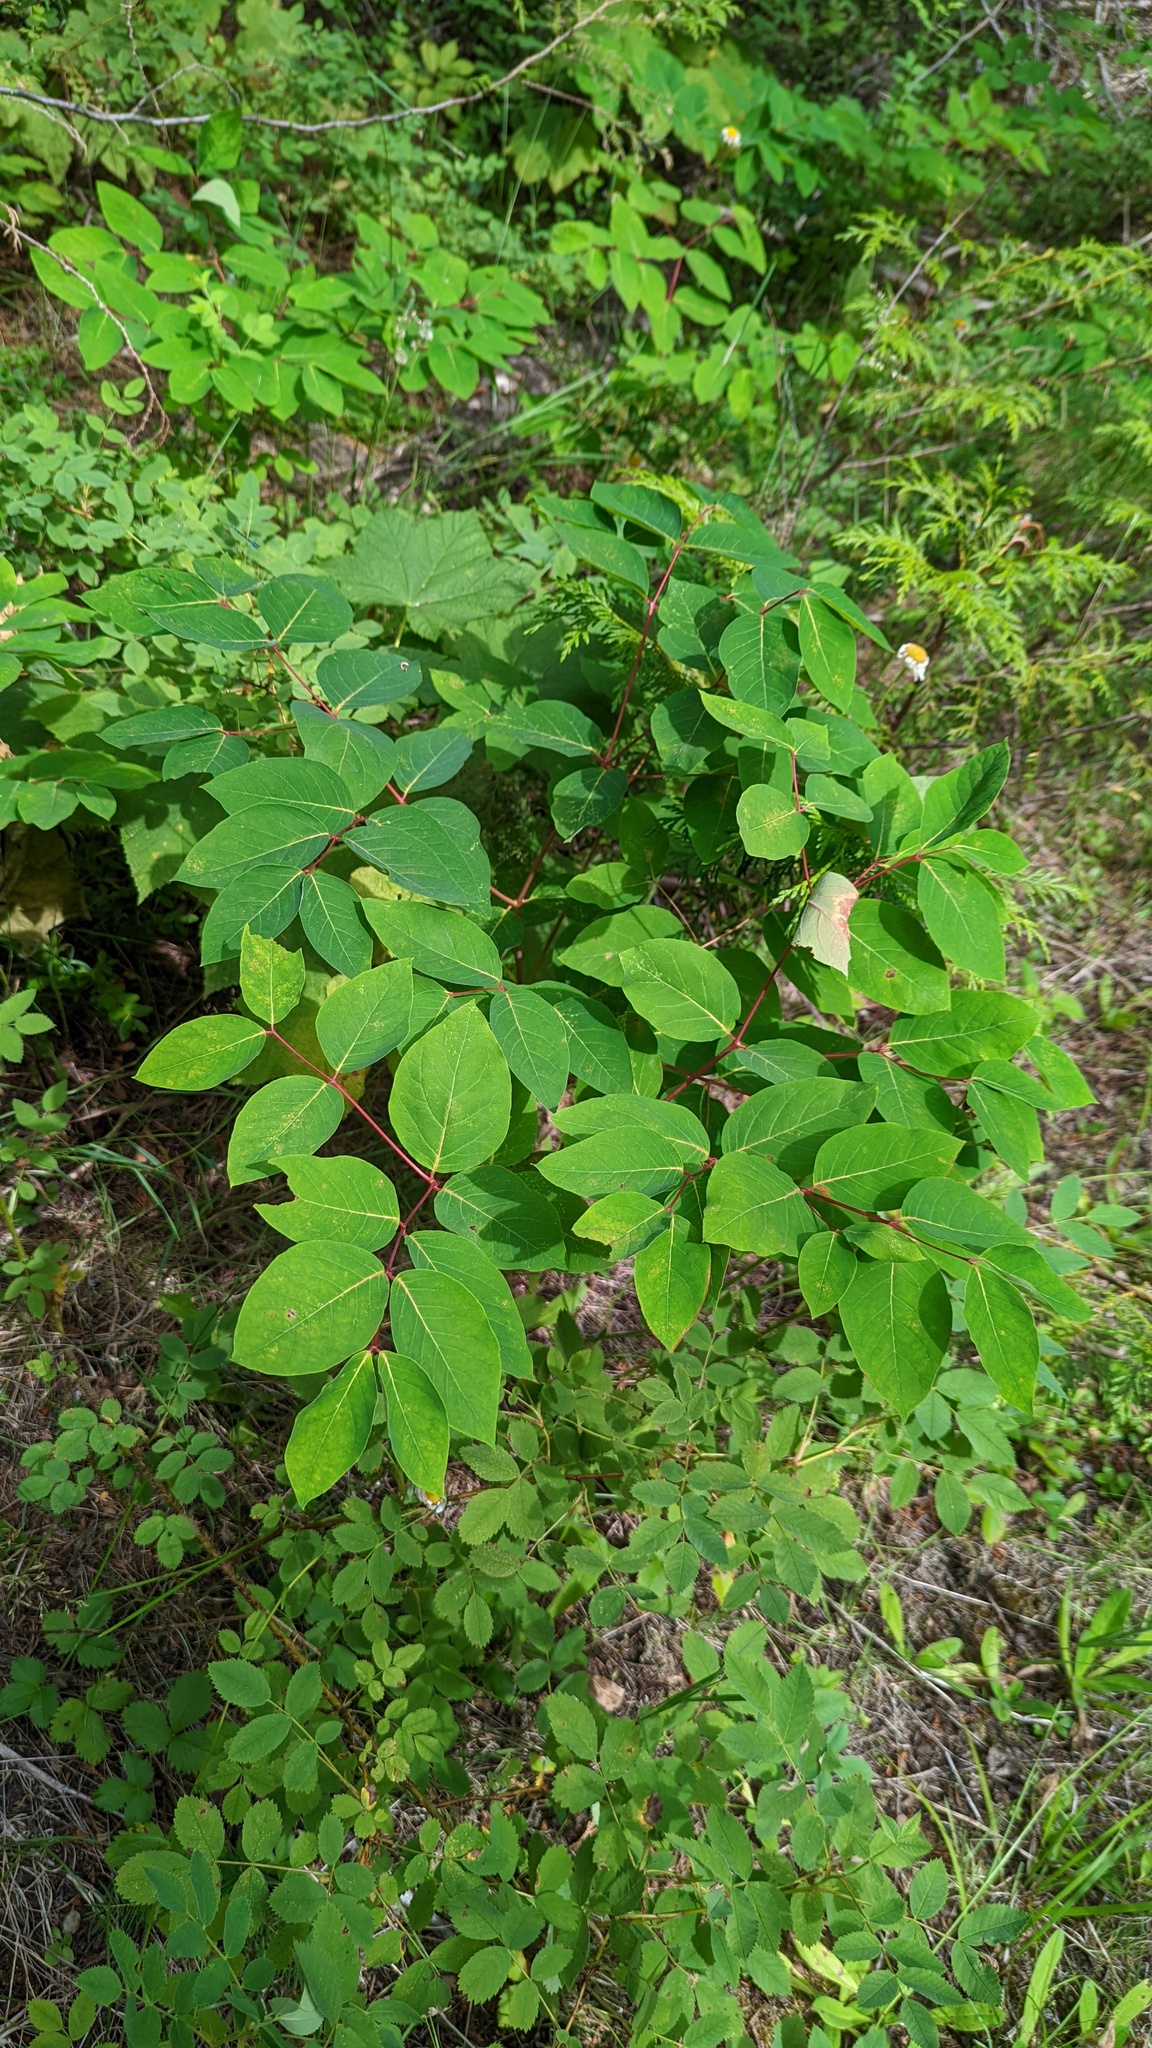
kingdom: Plantae
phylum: Tracheophyta
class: Magnoliopsida
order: Gentianales
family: Apocynaceae
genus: Apocynum
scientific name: Apocynum androsaemifolium
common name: Spreading dogbane
